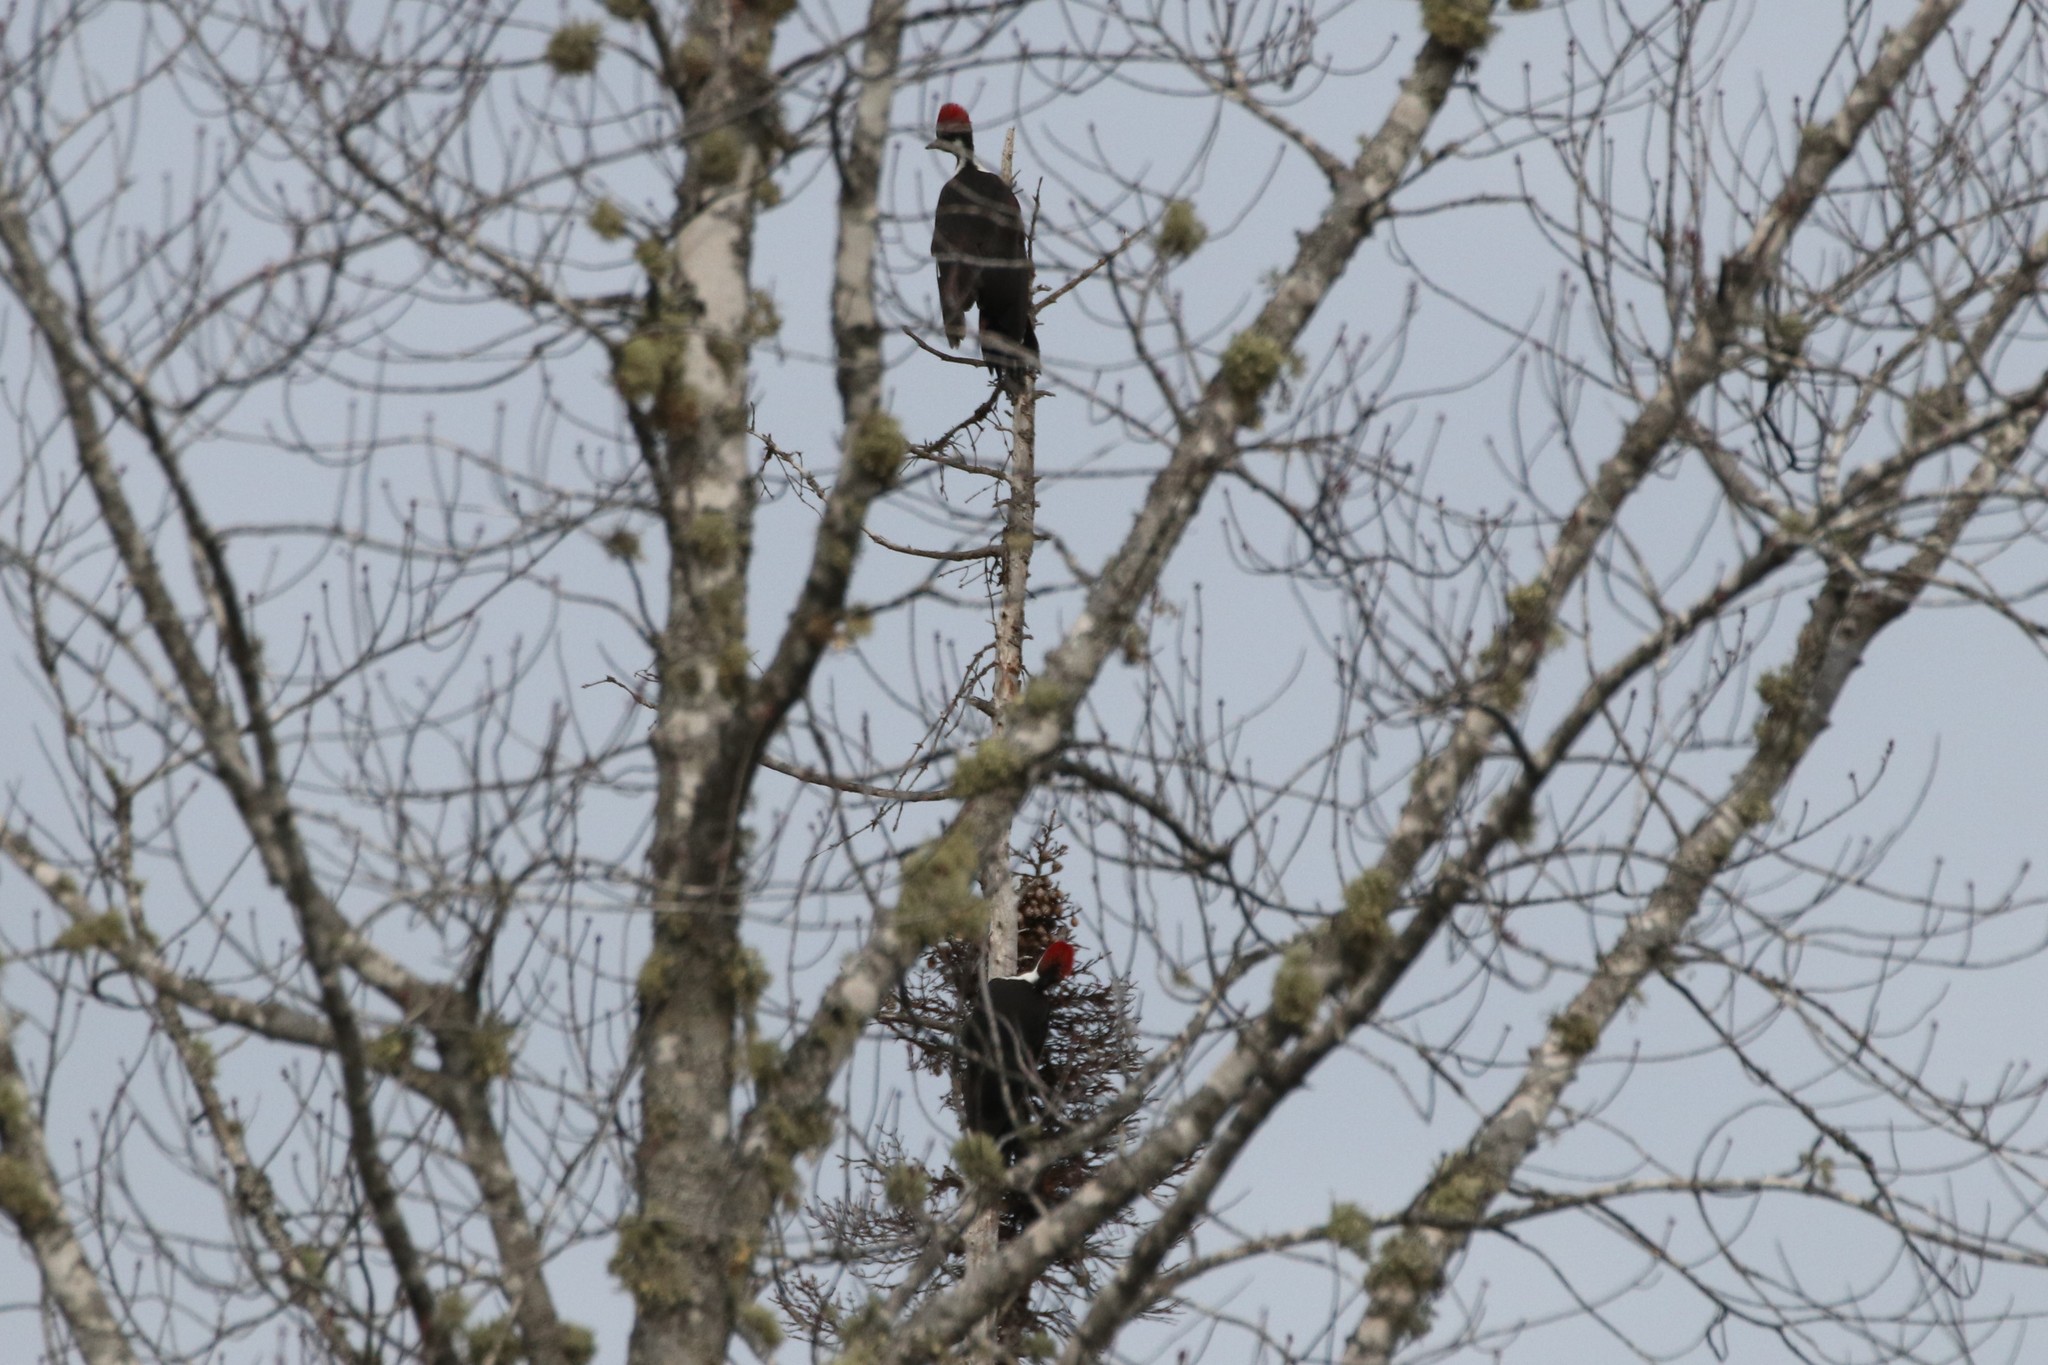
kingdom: Animalia
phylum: Chordata
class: Aves
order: Piciformes
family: Picidae
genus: Dryocopus
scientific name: Dryocopus pileatus
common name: Pileated woodpecker
